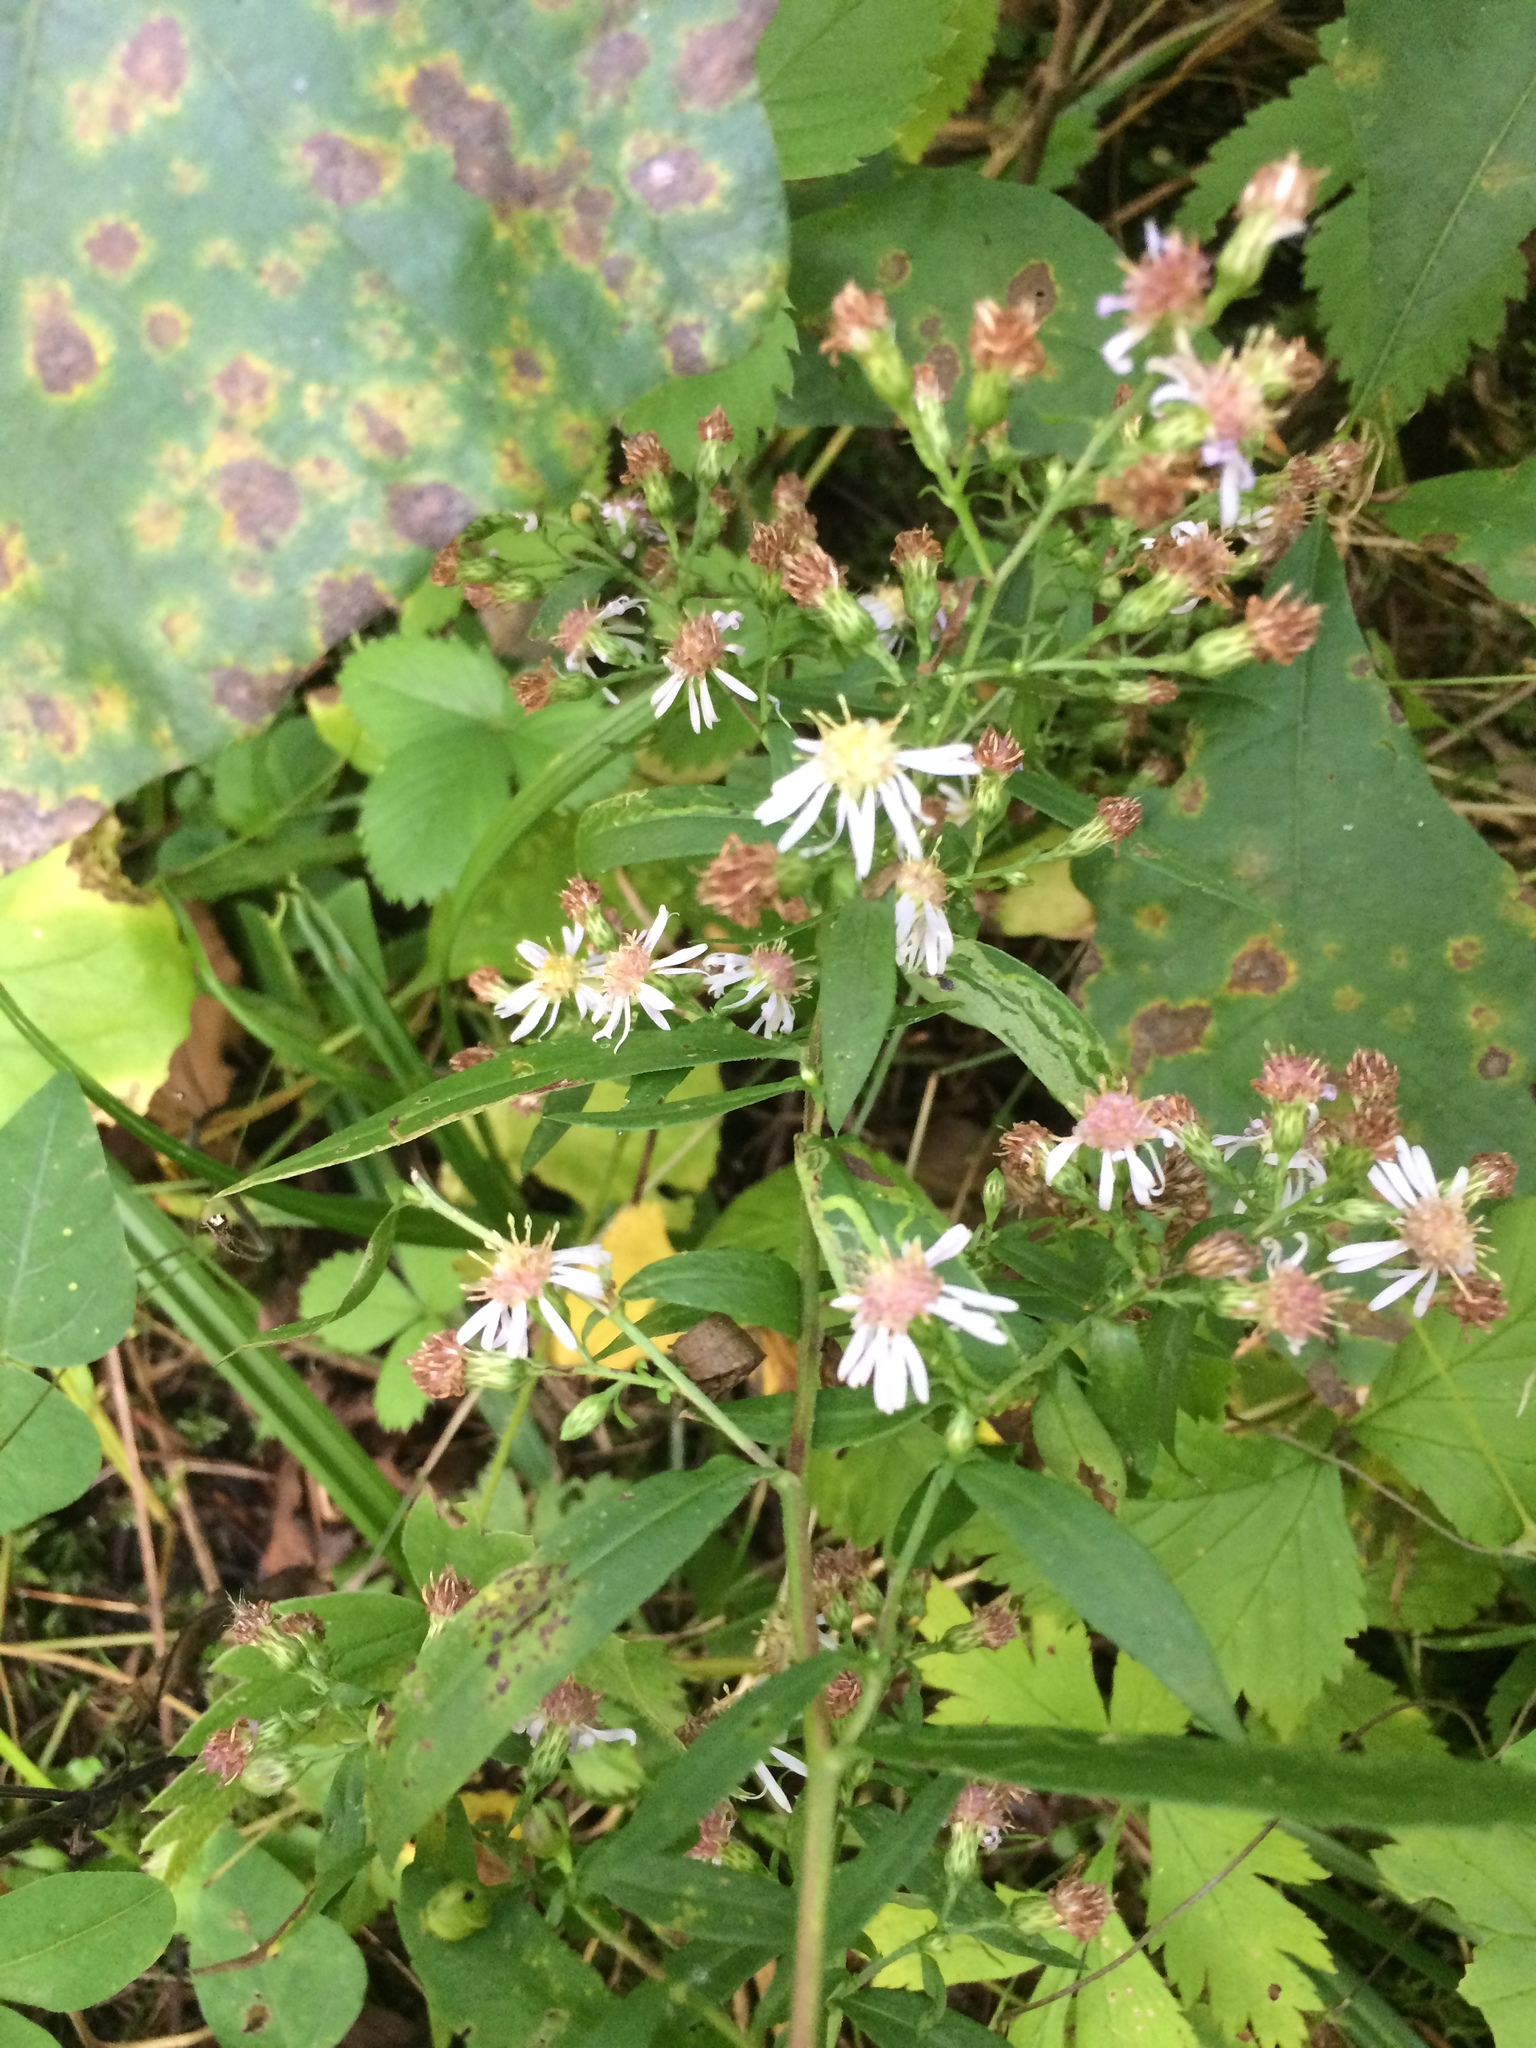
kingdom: Plantae
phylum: Tracheophyta
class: Magnoliopsida
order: Asterales
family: Asteraceae
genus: Symphyotrichum
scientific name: Symphyotrichum lateriflorum
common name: Calico aster
